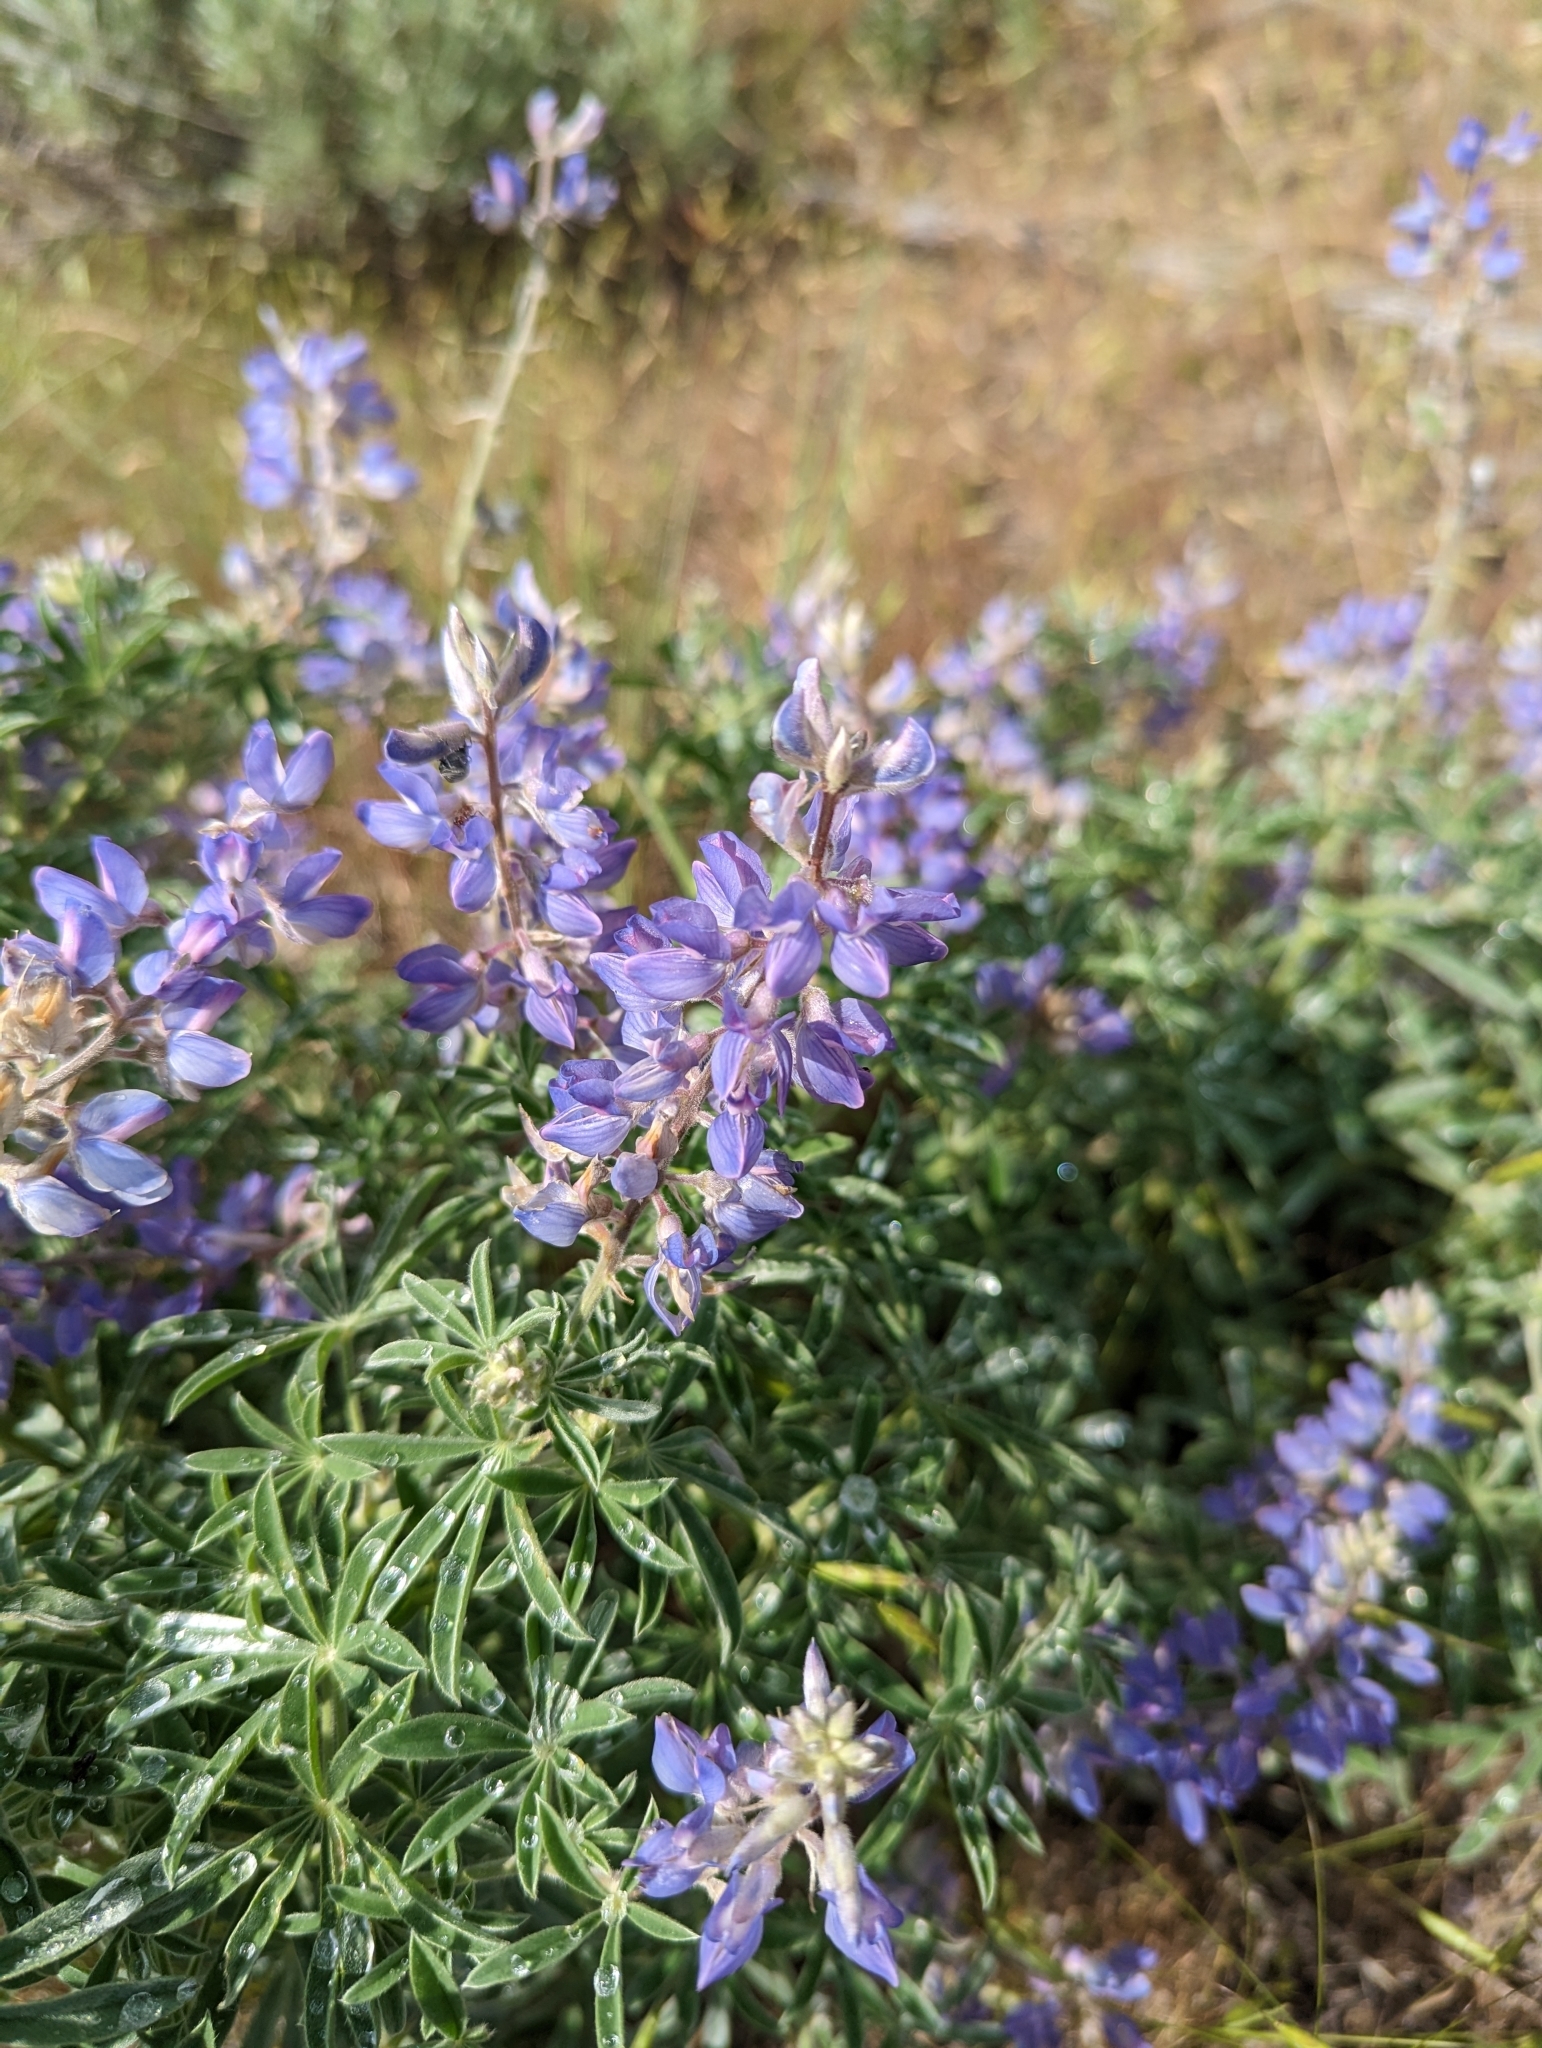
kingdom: Plantae
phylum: Tracheophyta
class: Magnoliopsida
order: Fabales
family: Fabaceae
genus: Lupinus
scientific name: Lupinus sericeus
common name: Silky lupine
